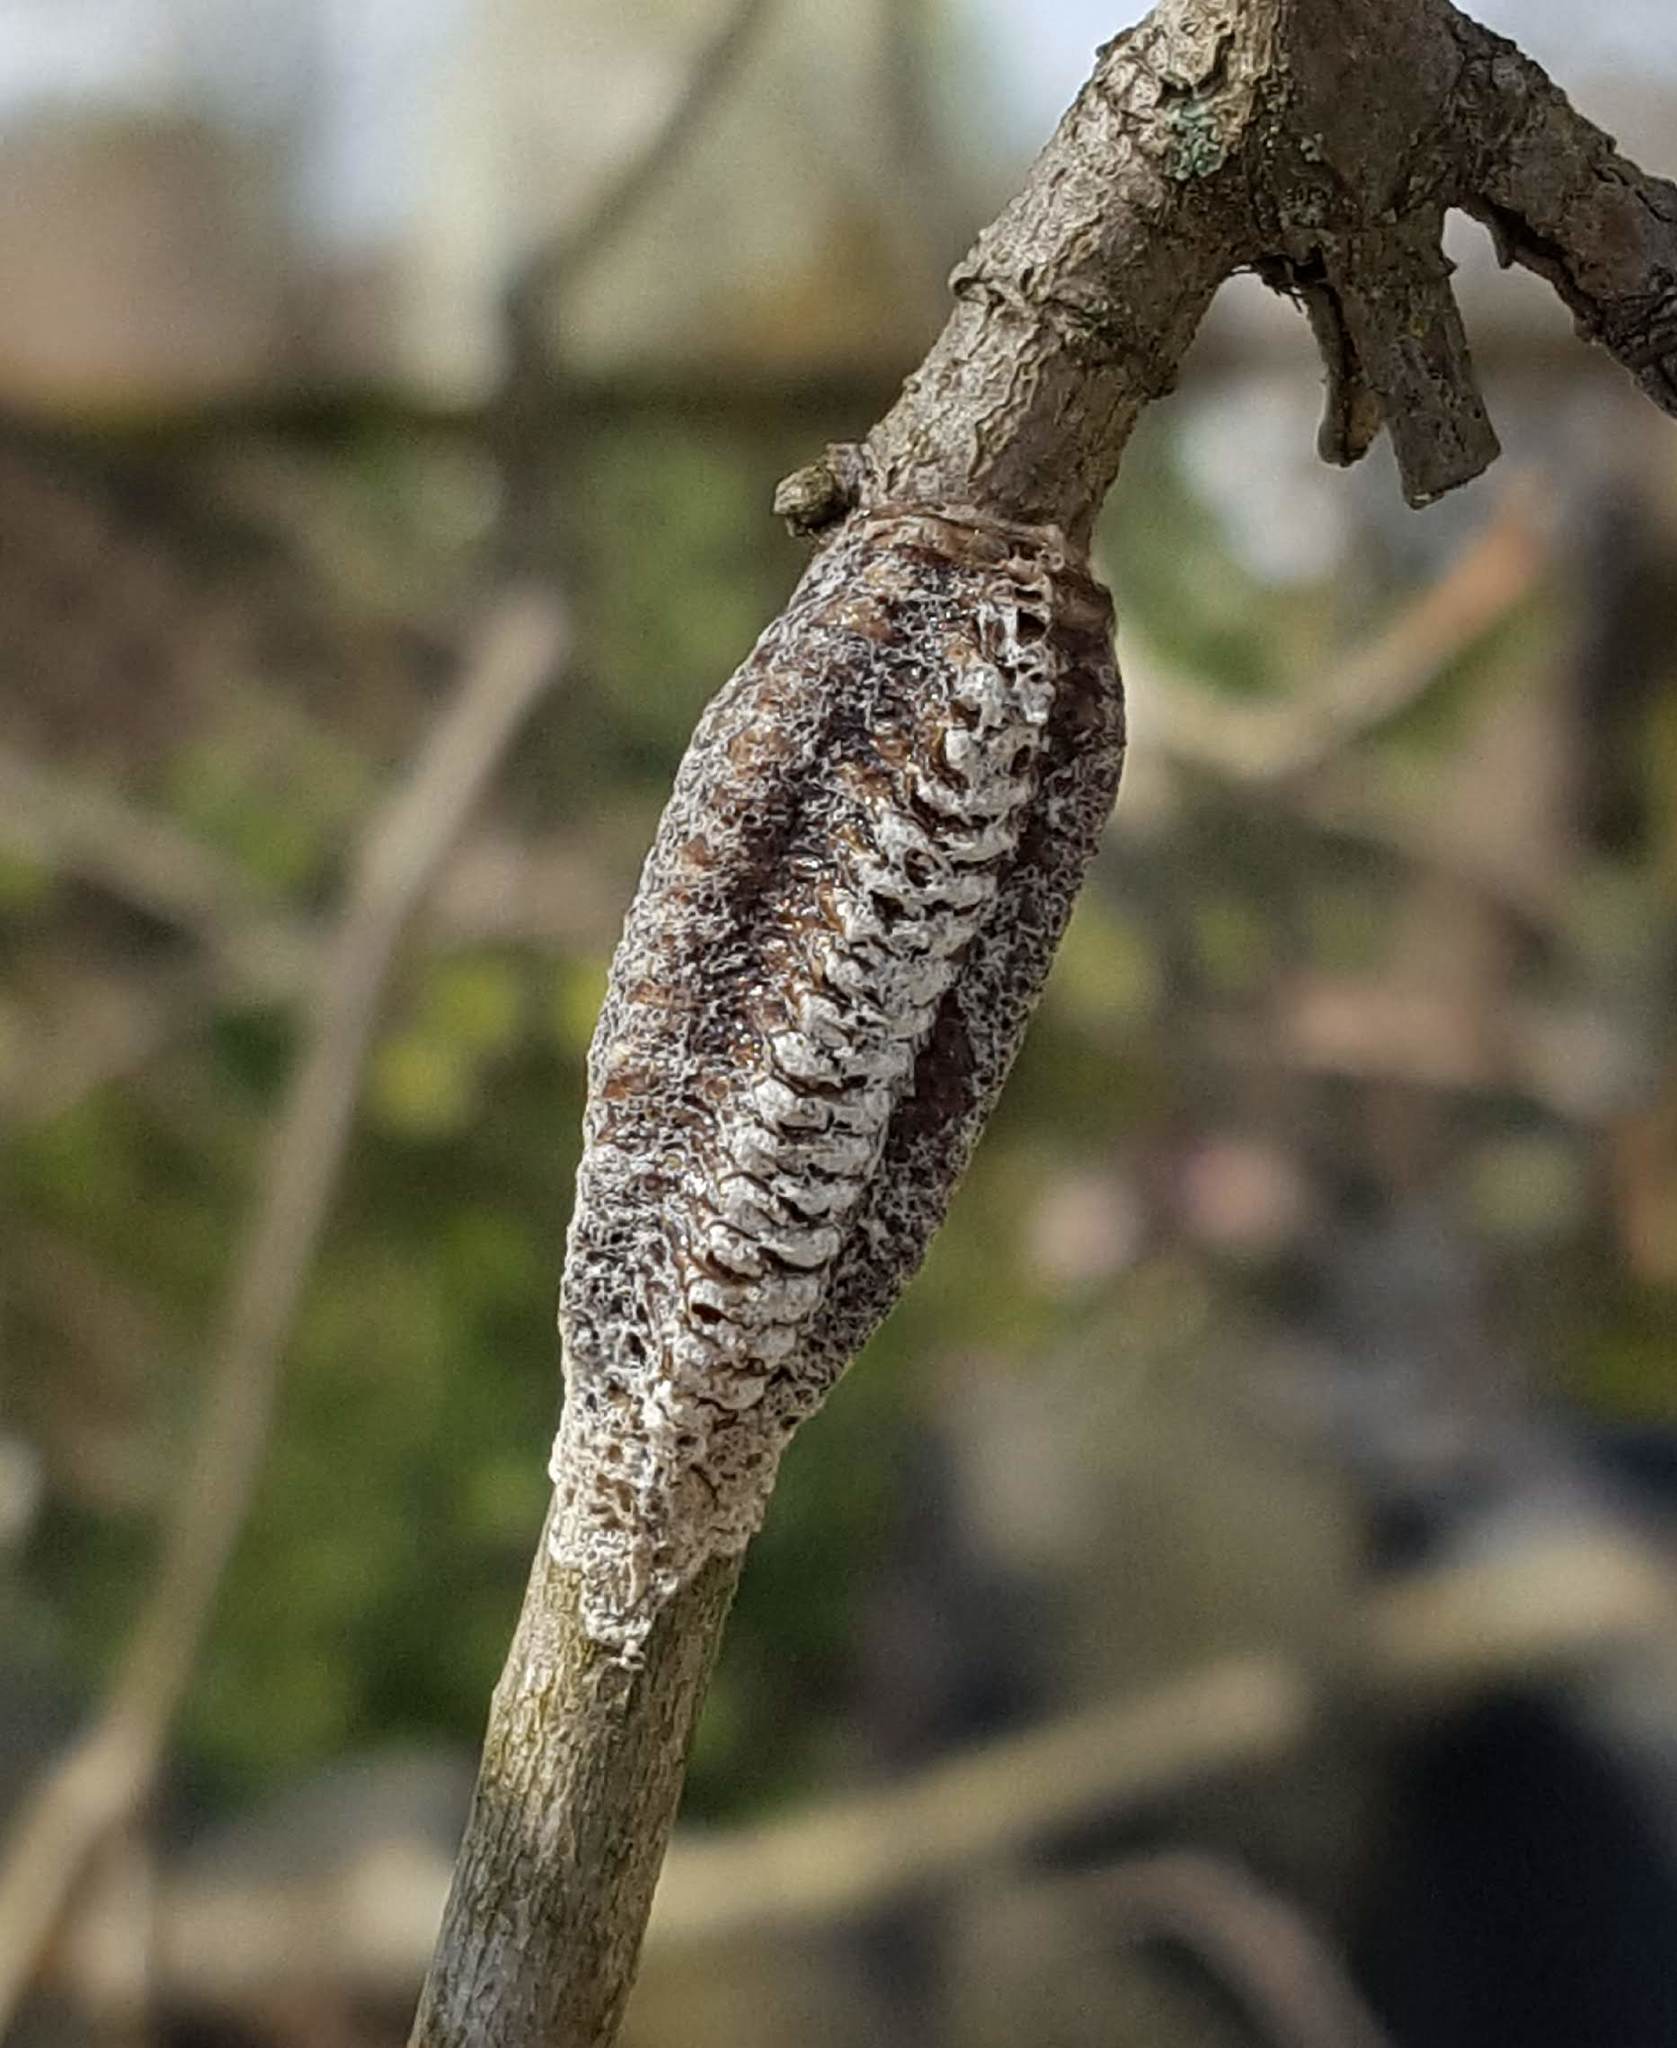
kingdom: Animalia
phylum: Arthropoda
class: Insecta
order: Mantodea
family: Mantidae
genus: Stagmomantis
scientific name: Stagmomantis carolina
